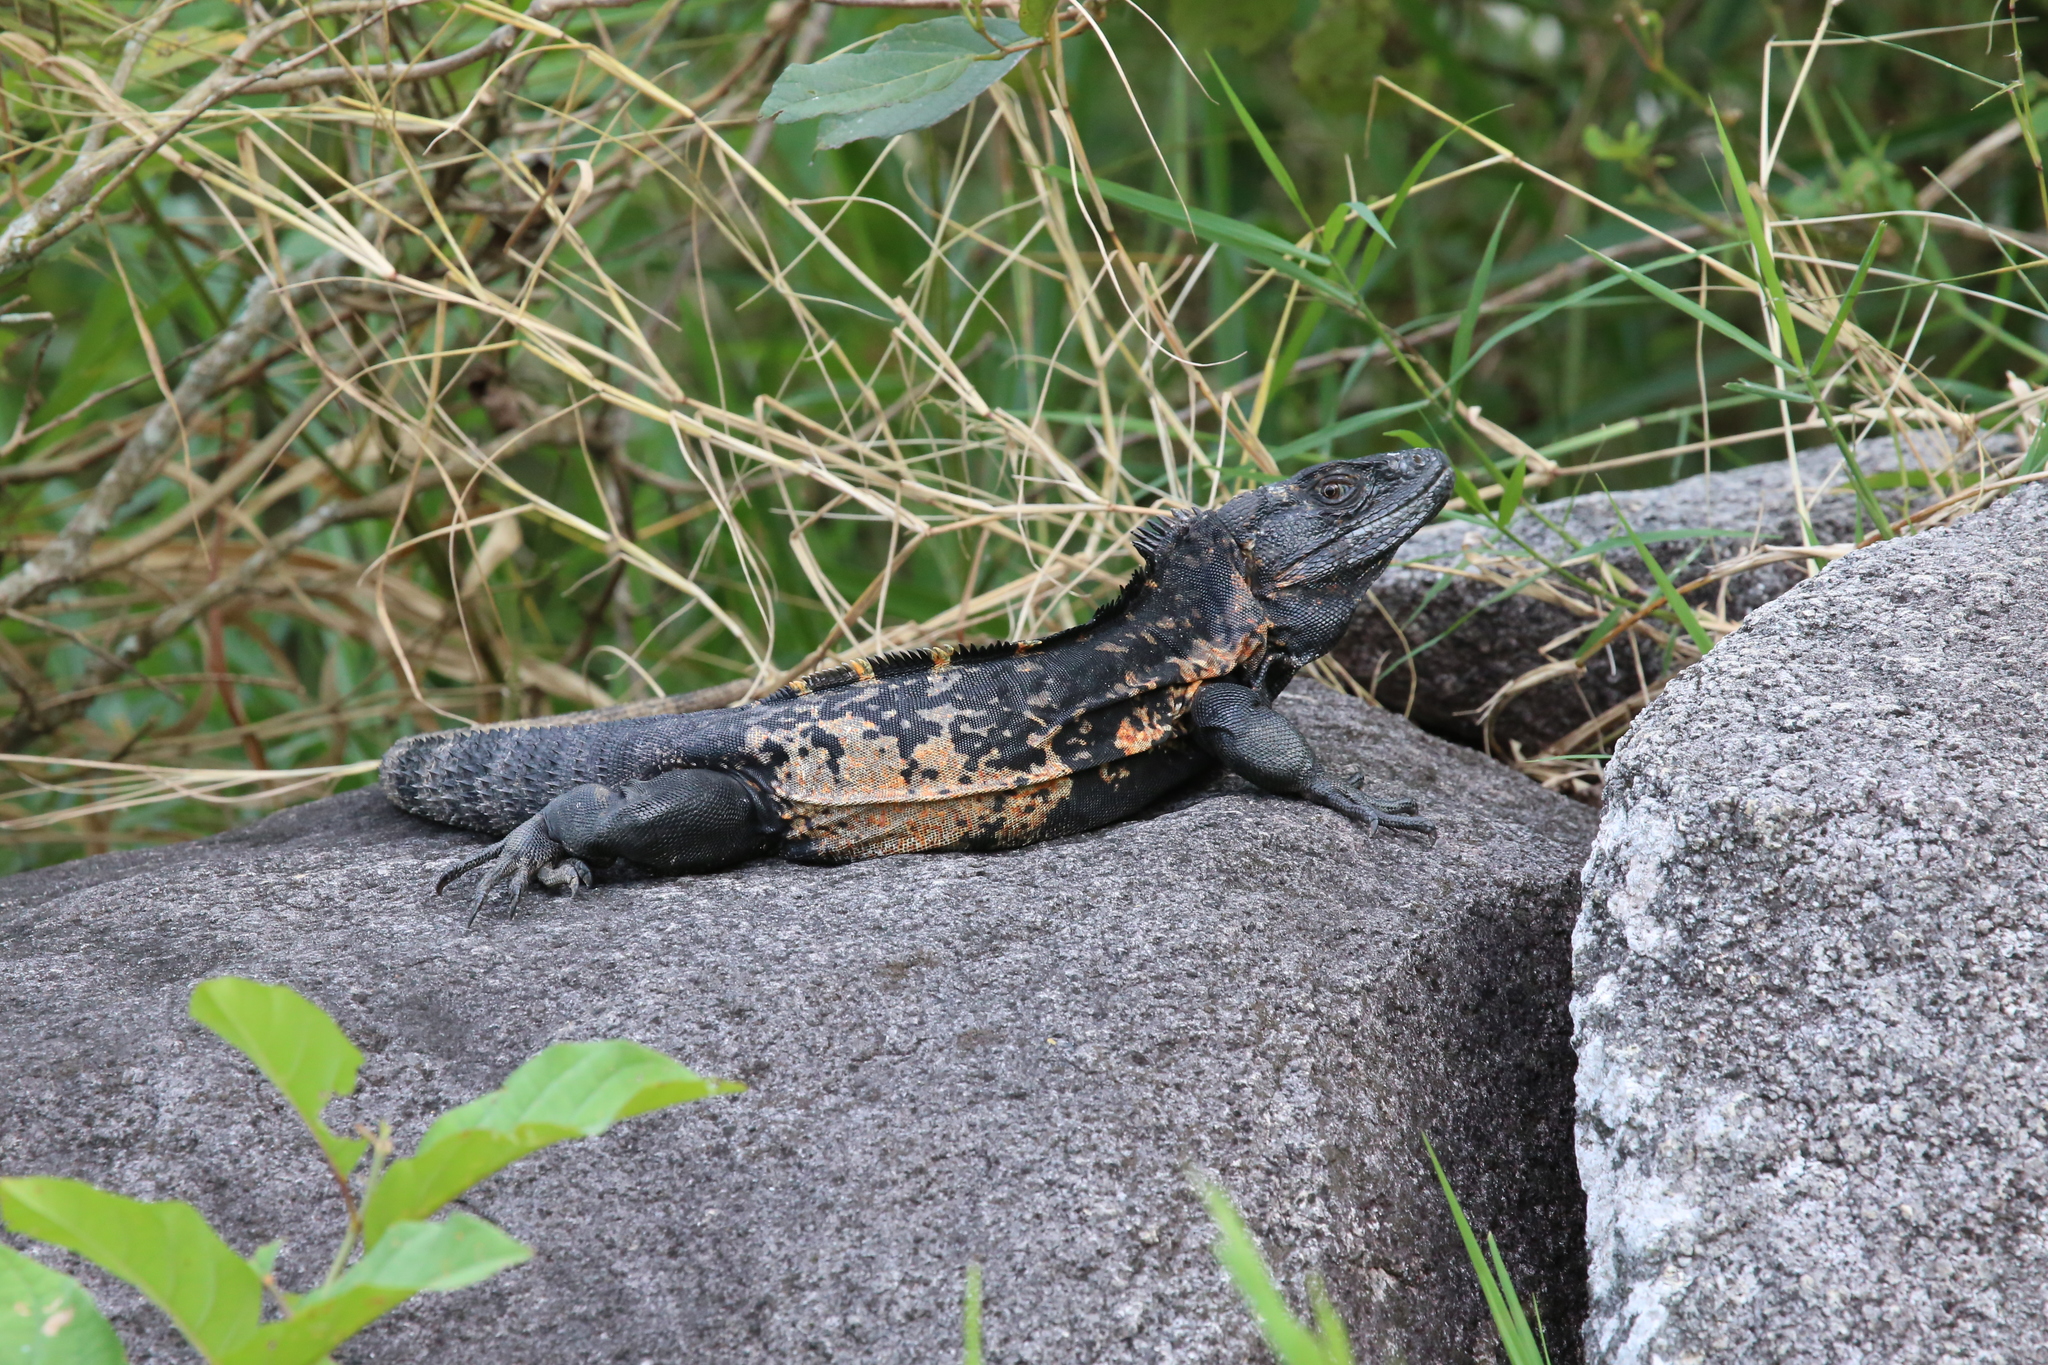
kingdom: Animalia
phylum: Chordata
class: Squamata
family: Iguanidae
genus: Ctenosaura
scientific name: Ctenosaura pectinata
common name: Guerreran spiny-tailed iguana
